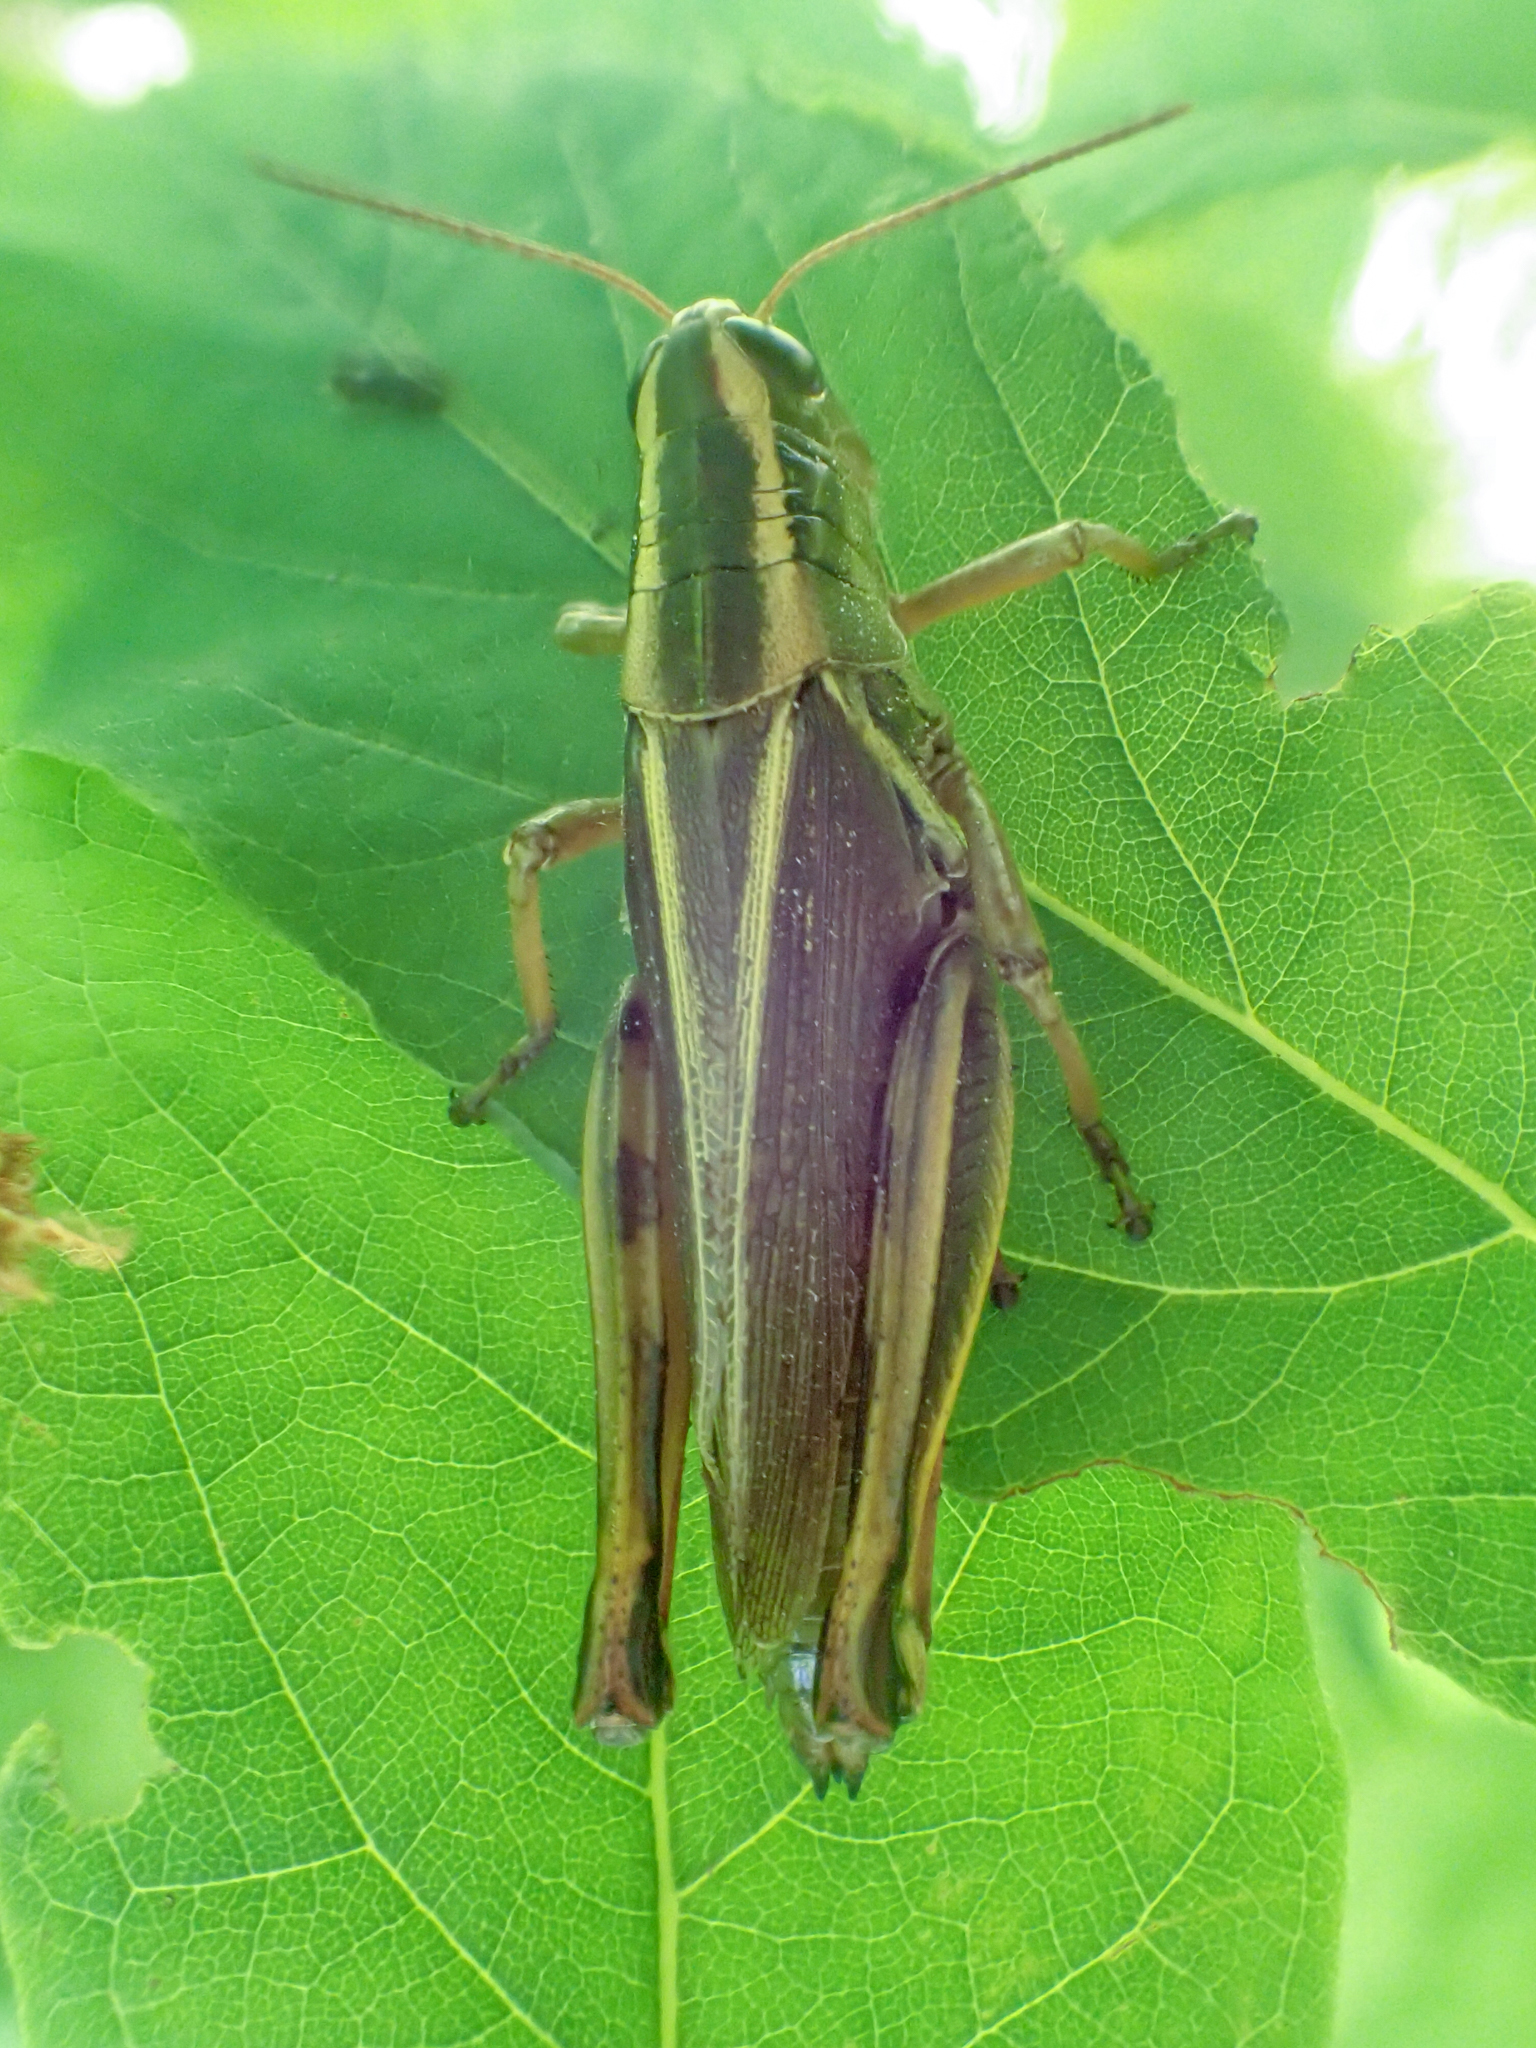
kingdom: Animalia
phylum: Arthropoda
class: Insecta
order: Orthoptera
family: Acrididae
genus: Melanoplus
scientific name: Melanoplus bivittatus
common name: Two-striped grasshopper
